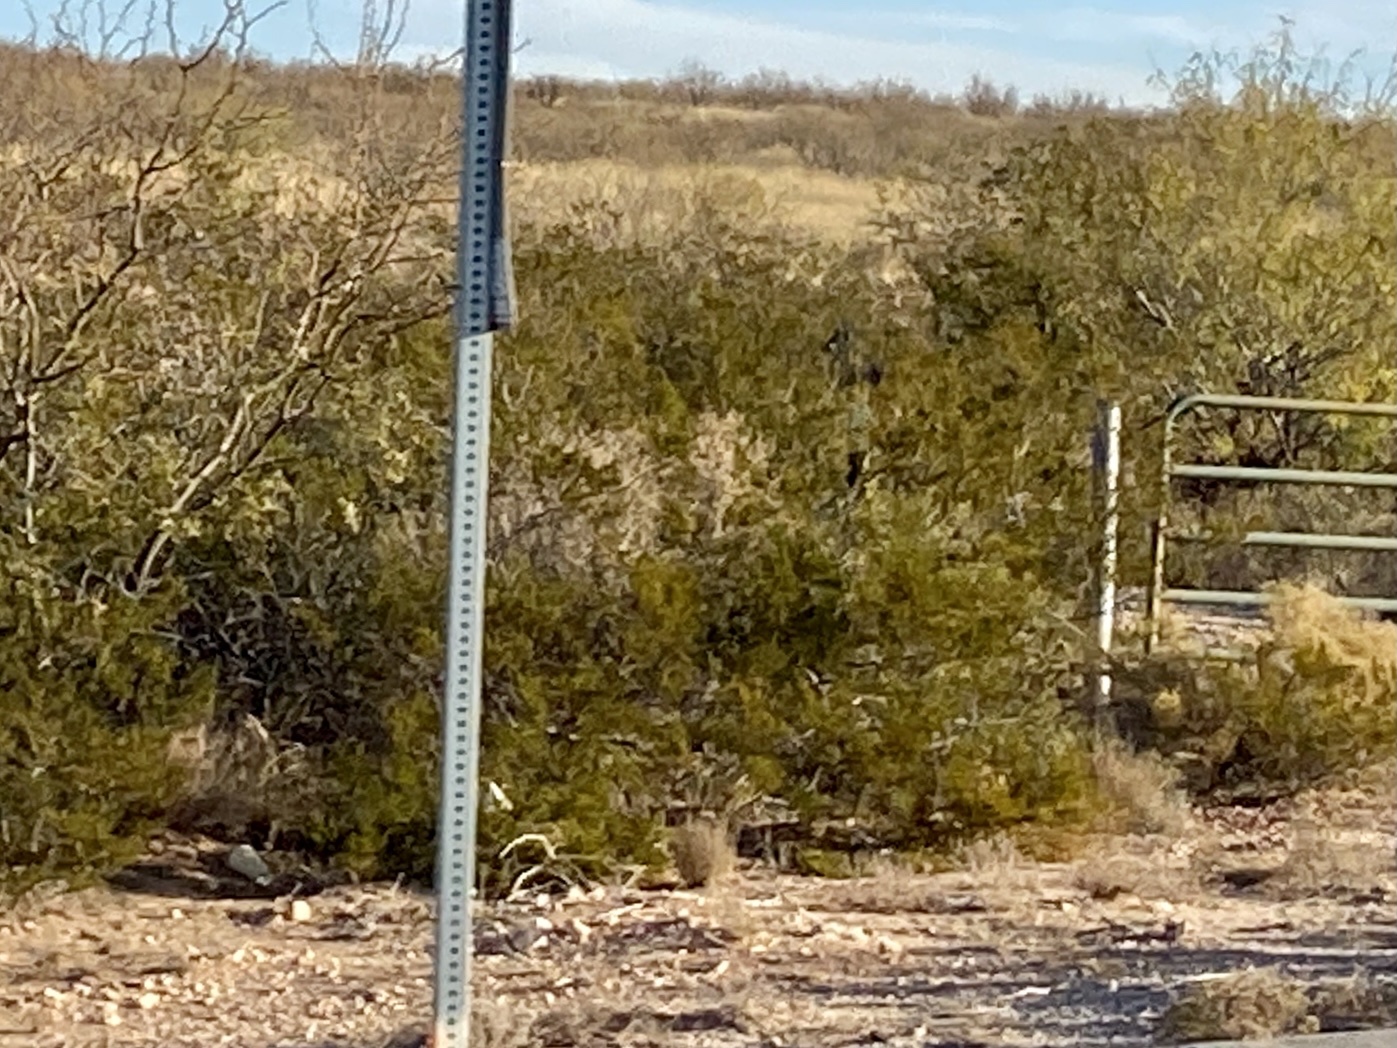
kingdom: Plantae
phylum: Tracheophyta
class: Magnoliopsida
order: Zygophyllales
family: Zygophyllaceae
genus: Larrea
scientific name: Larrea tridentata
